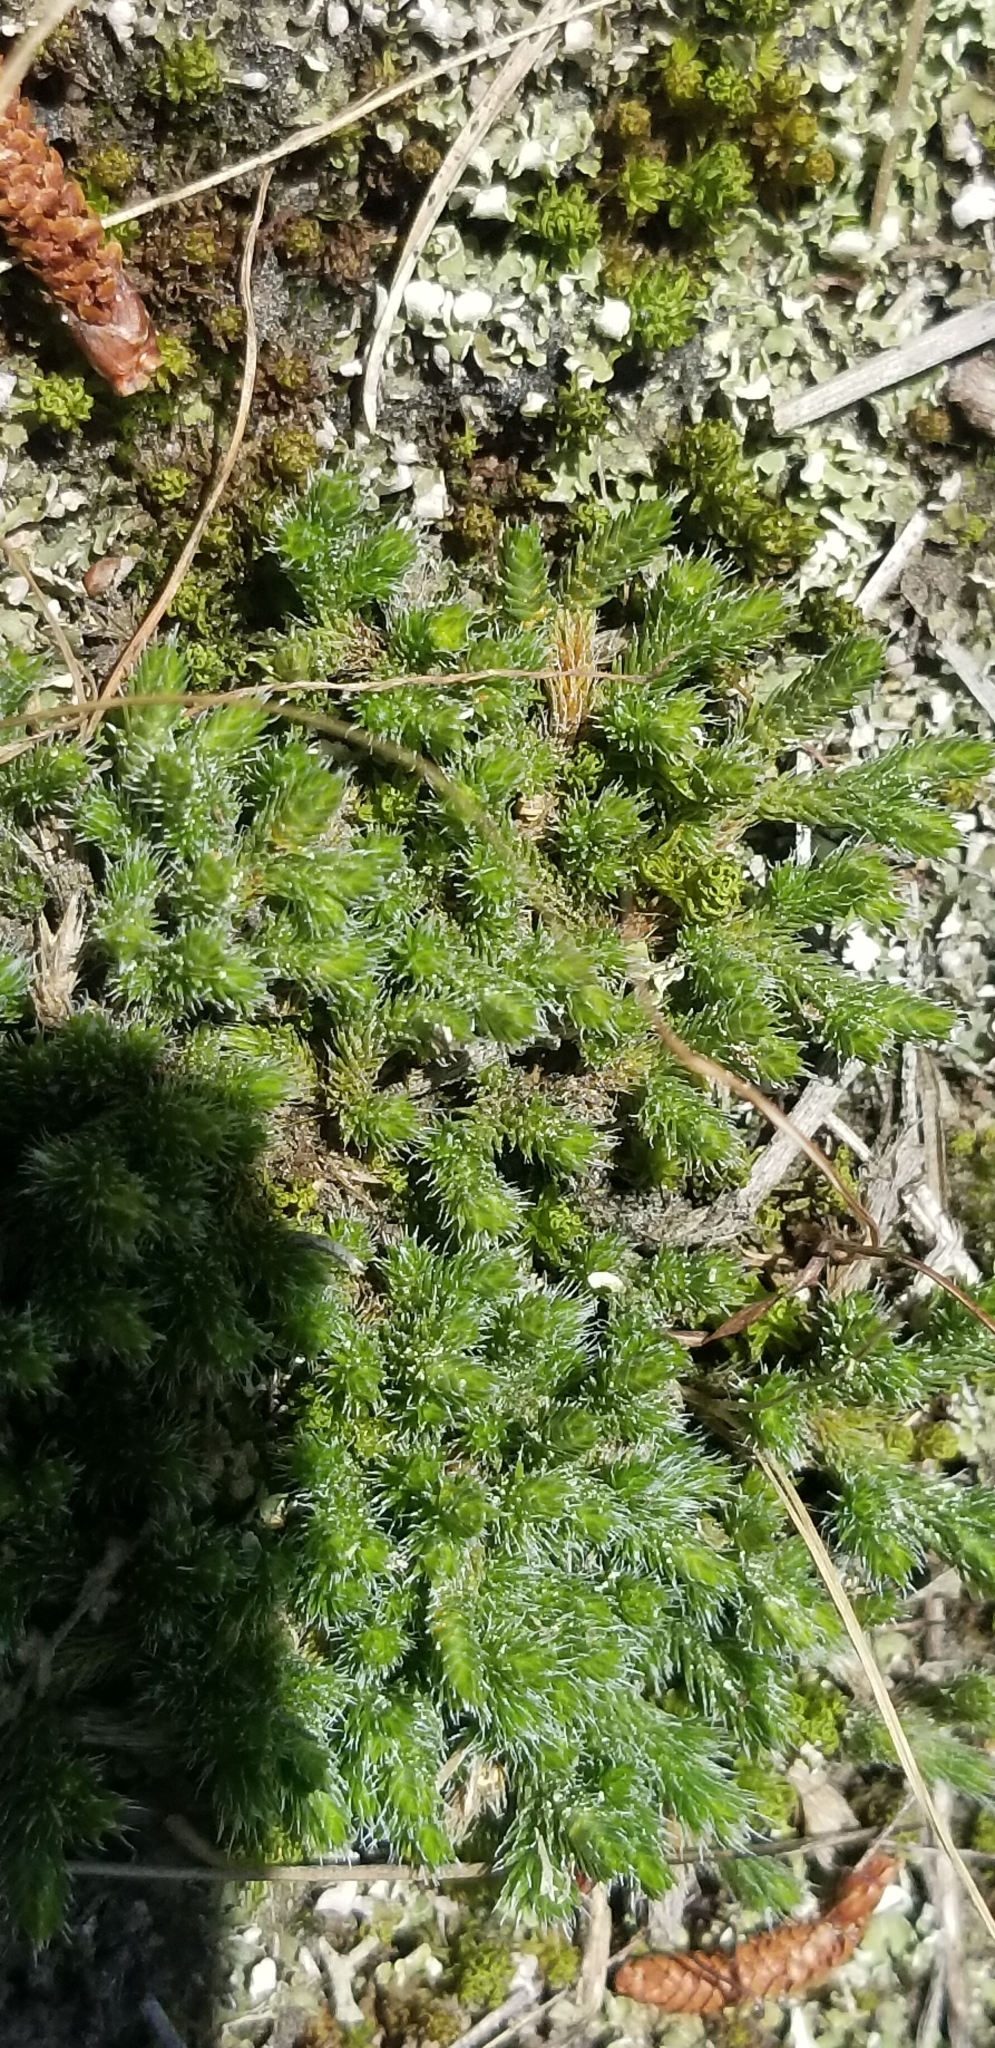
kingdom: Plantae
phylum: Tracheophyta
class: Lycopodiopsida
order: Selaginellales
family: Selaginellaceae
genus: Selaginella
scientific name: Selaginella rupestris
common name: Dwarf spikemoss
